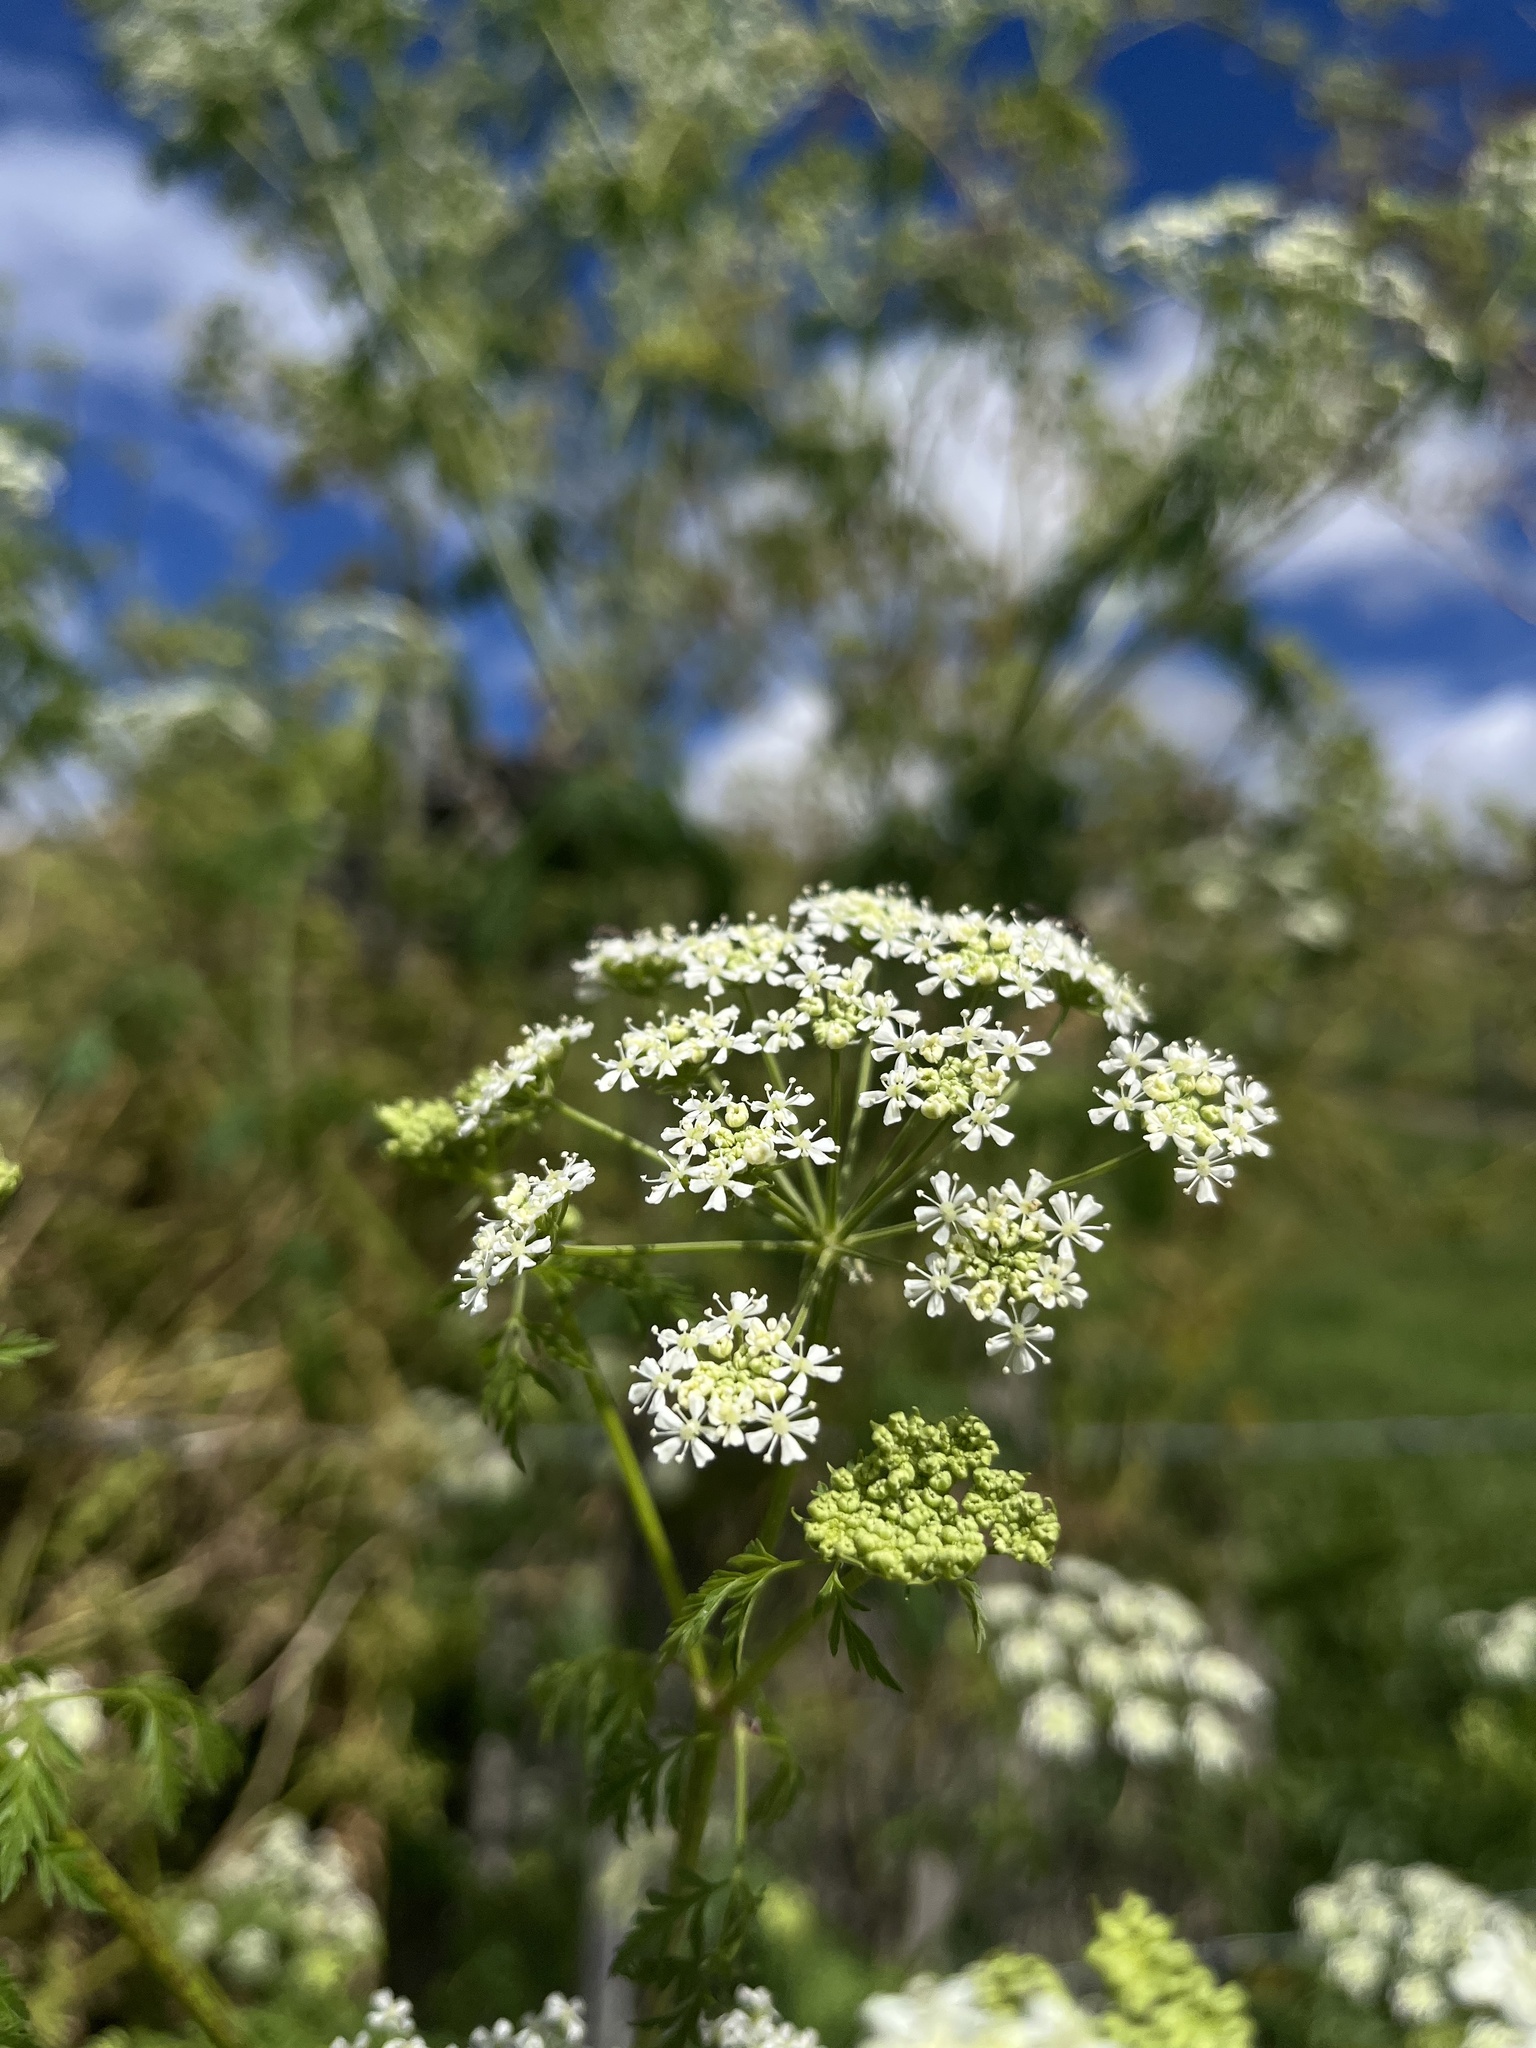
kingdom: Plantae
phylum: Tracheophyta
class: Magnoliopsida
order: Apiales
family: Apiaceae
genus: Conium
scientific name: Conium maculatum
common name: Hemlock
